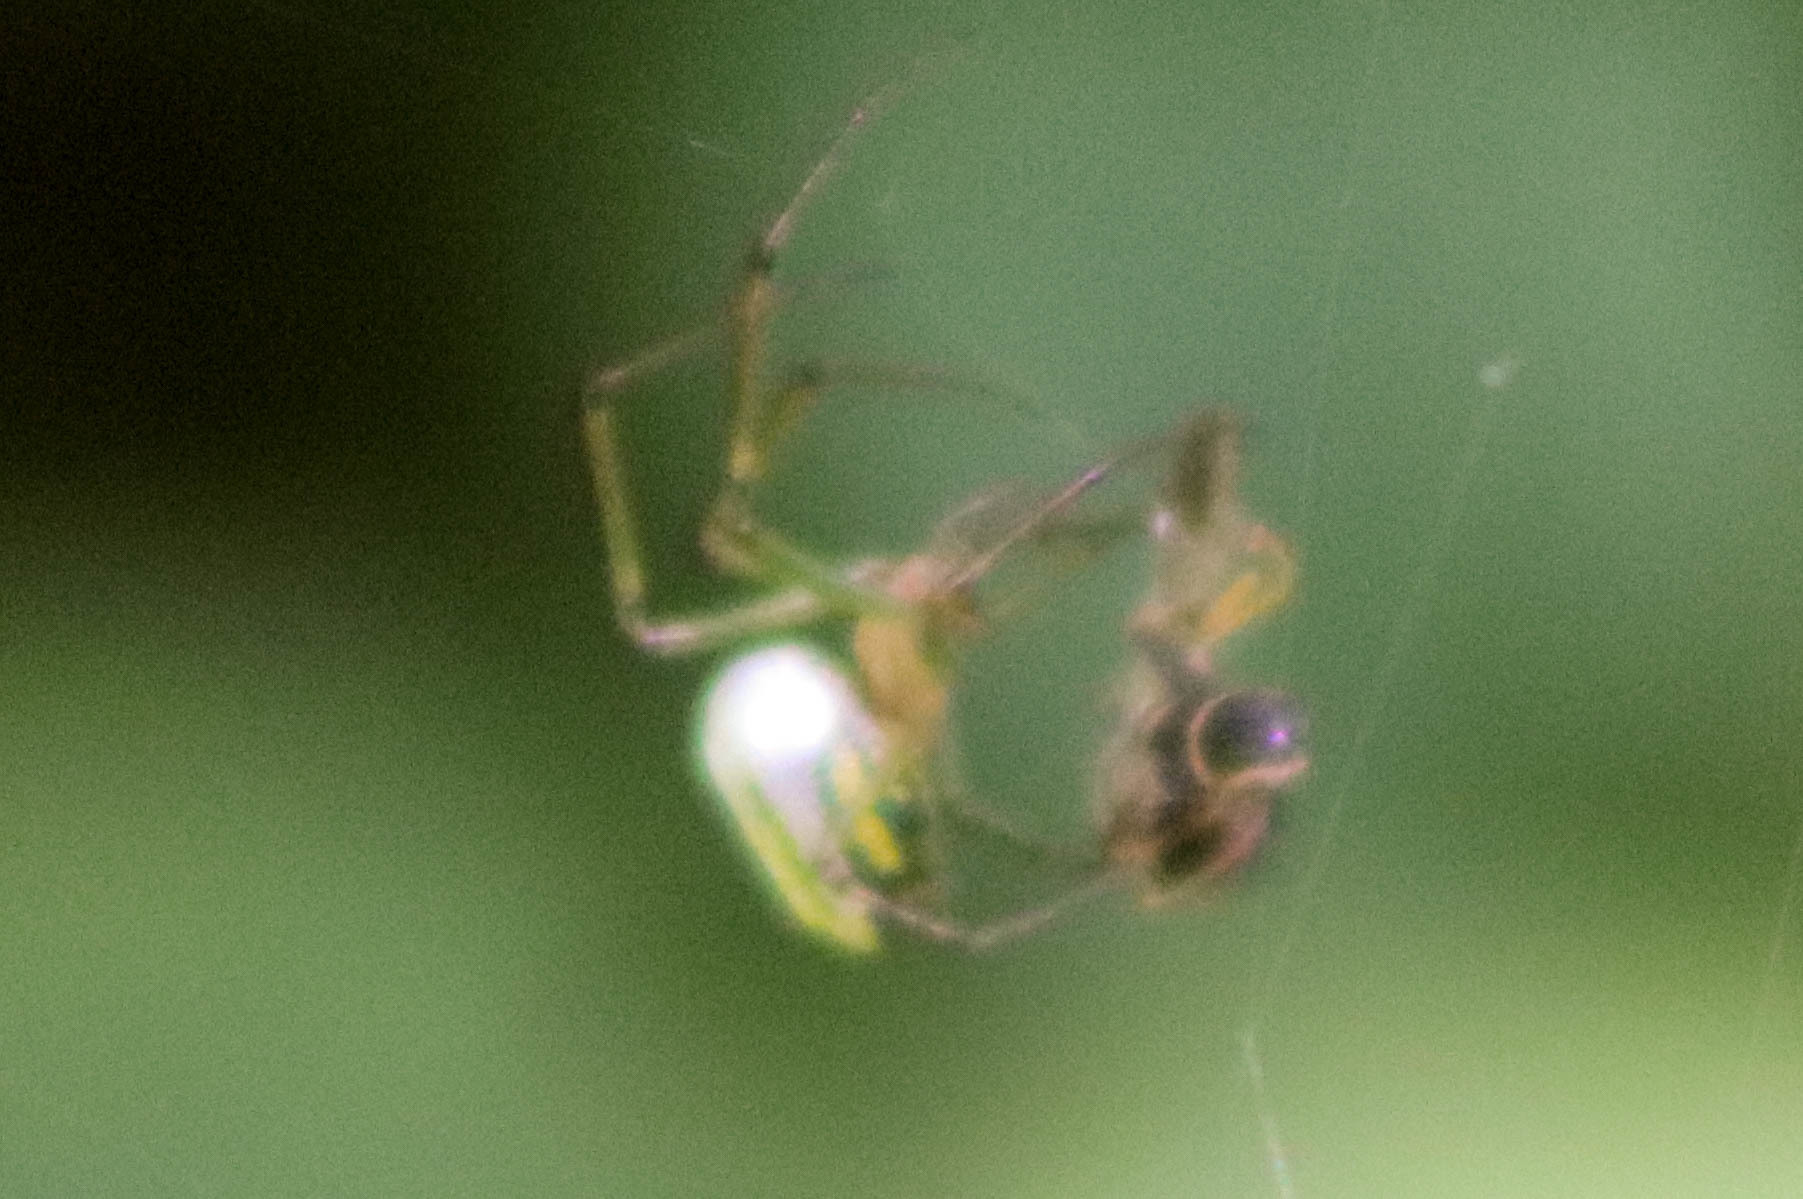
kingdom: Animalia
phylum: Arthropoda
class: Arachnida
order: Araneae
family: Tetragnathidae
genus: Leucauge
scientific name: Leucauge venusta
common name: Longjawed orb weavers
